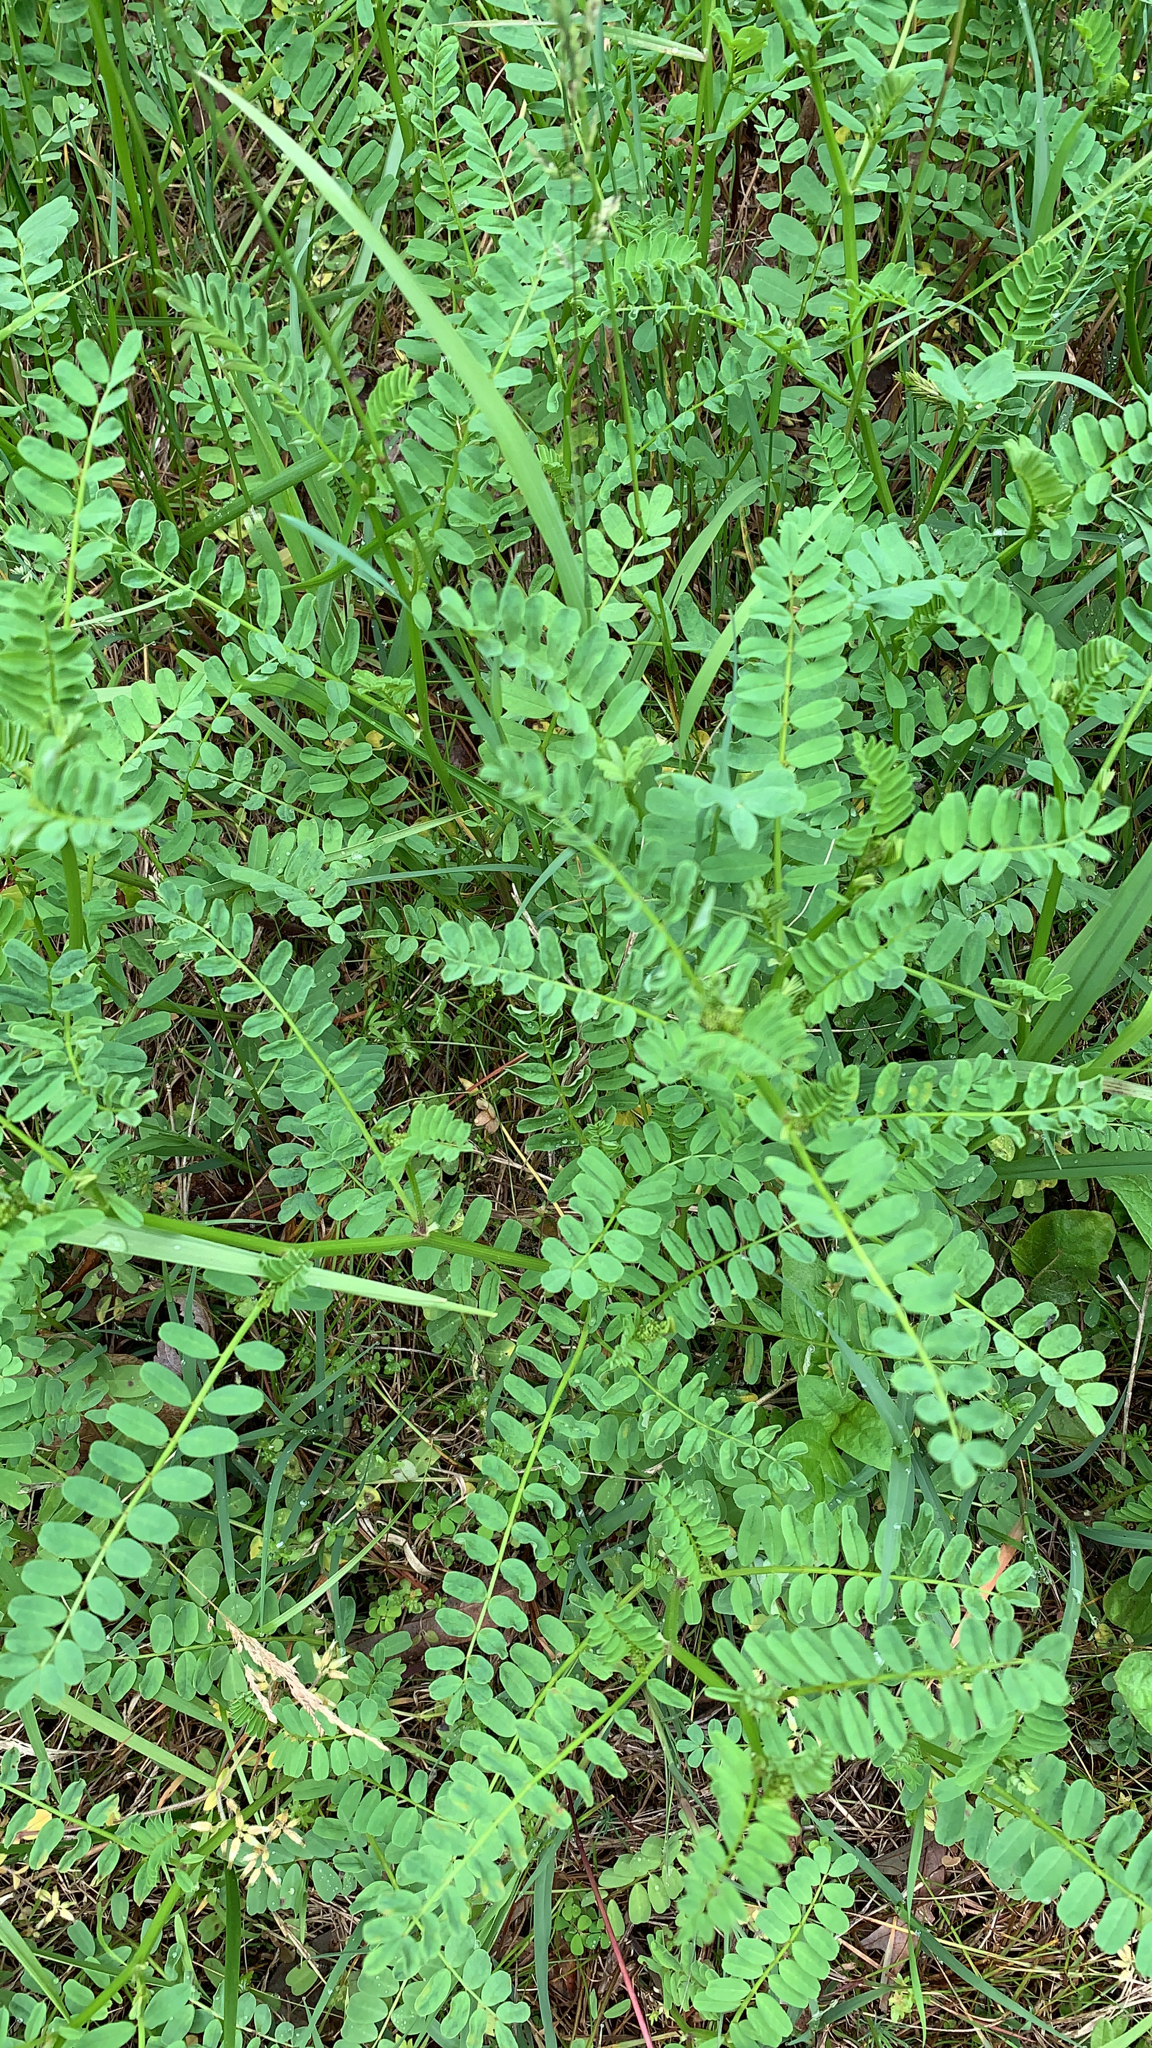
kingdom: Plantae
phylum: Tracheophyta
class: Magnoliopsida
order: Fabales
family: Fabaceae
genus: Coronilla
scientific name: Coronilla varia
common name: Crownvetch
